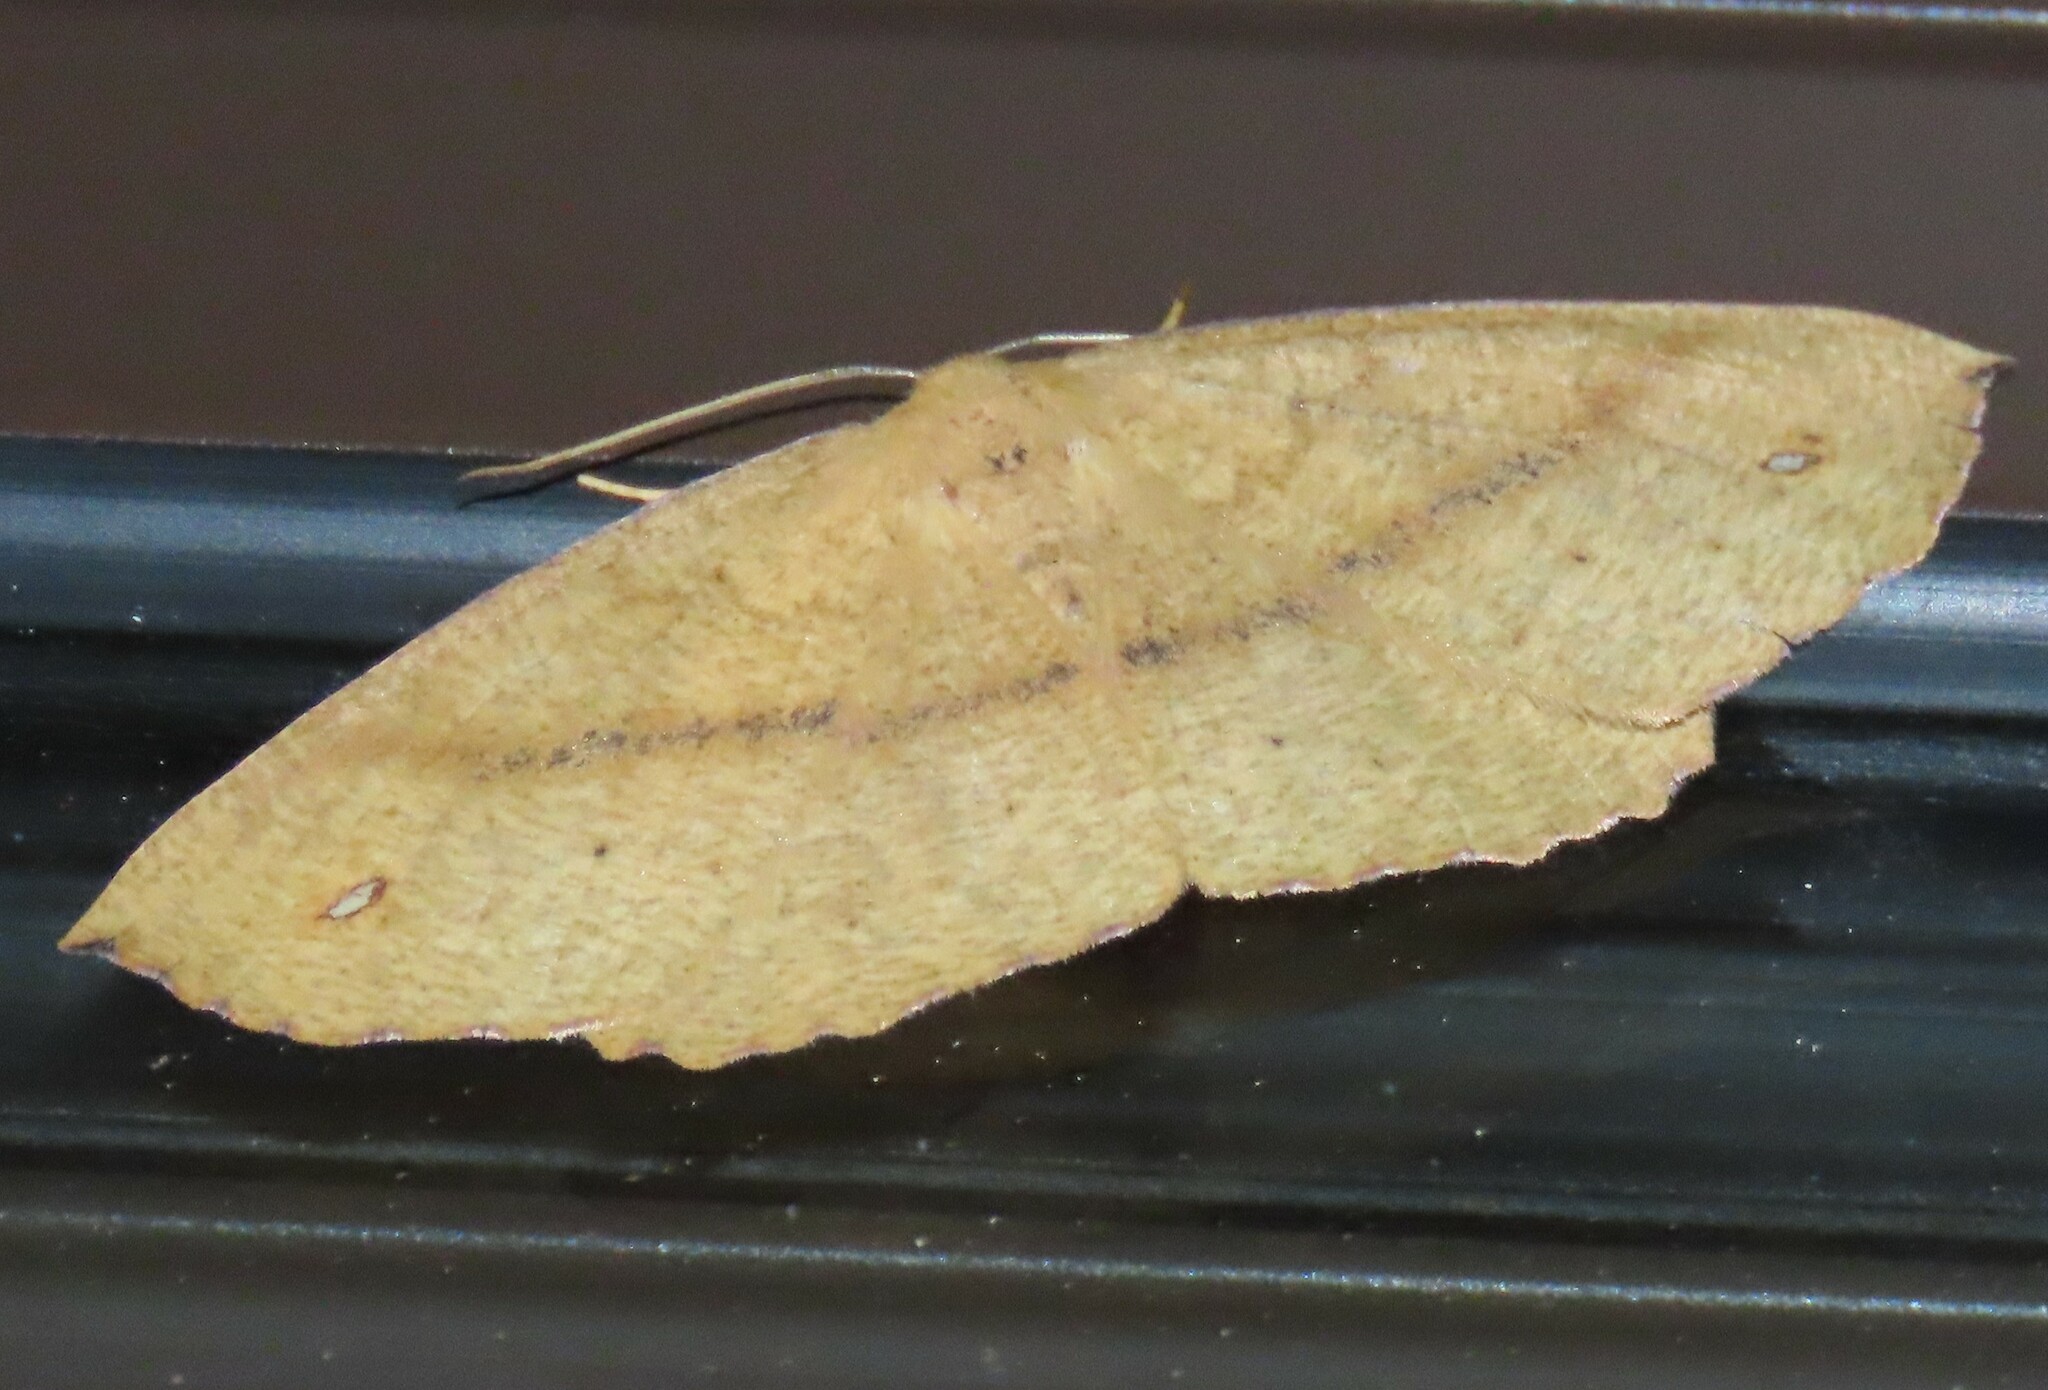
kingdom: Animalia
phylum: Arthropoda
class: Insecta
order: Lepidoptera
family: Geometridae
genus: Xyridacma
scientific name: Xyridacma alectoraria
